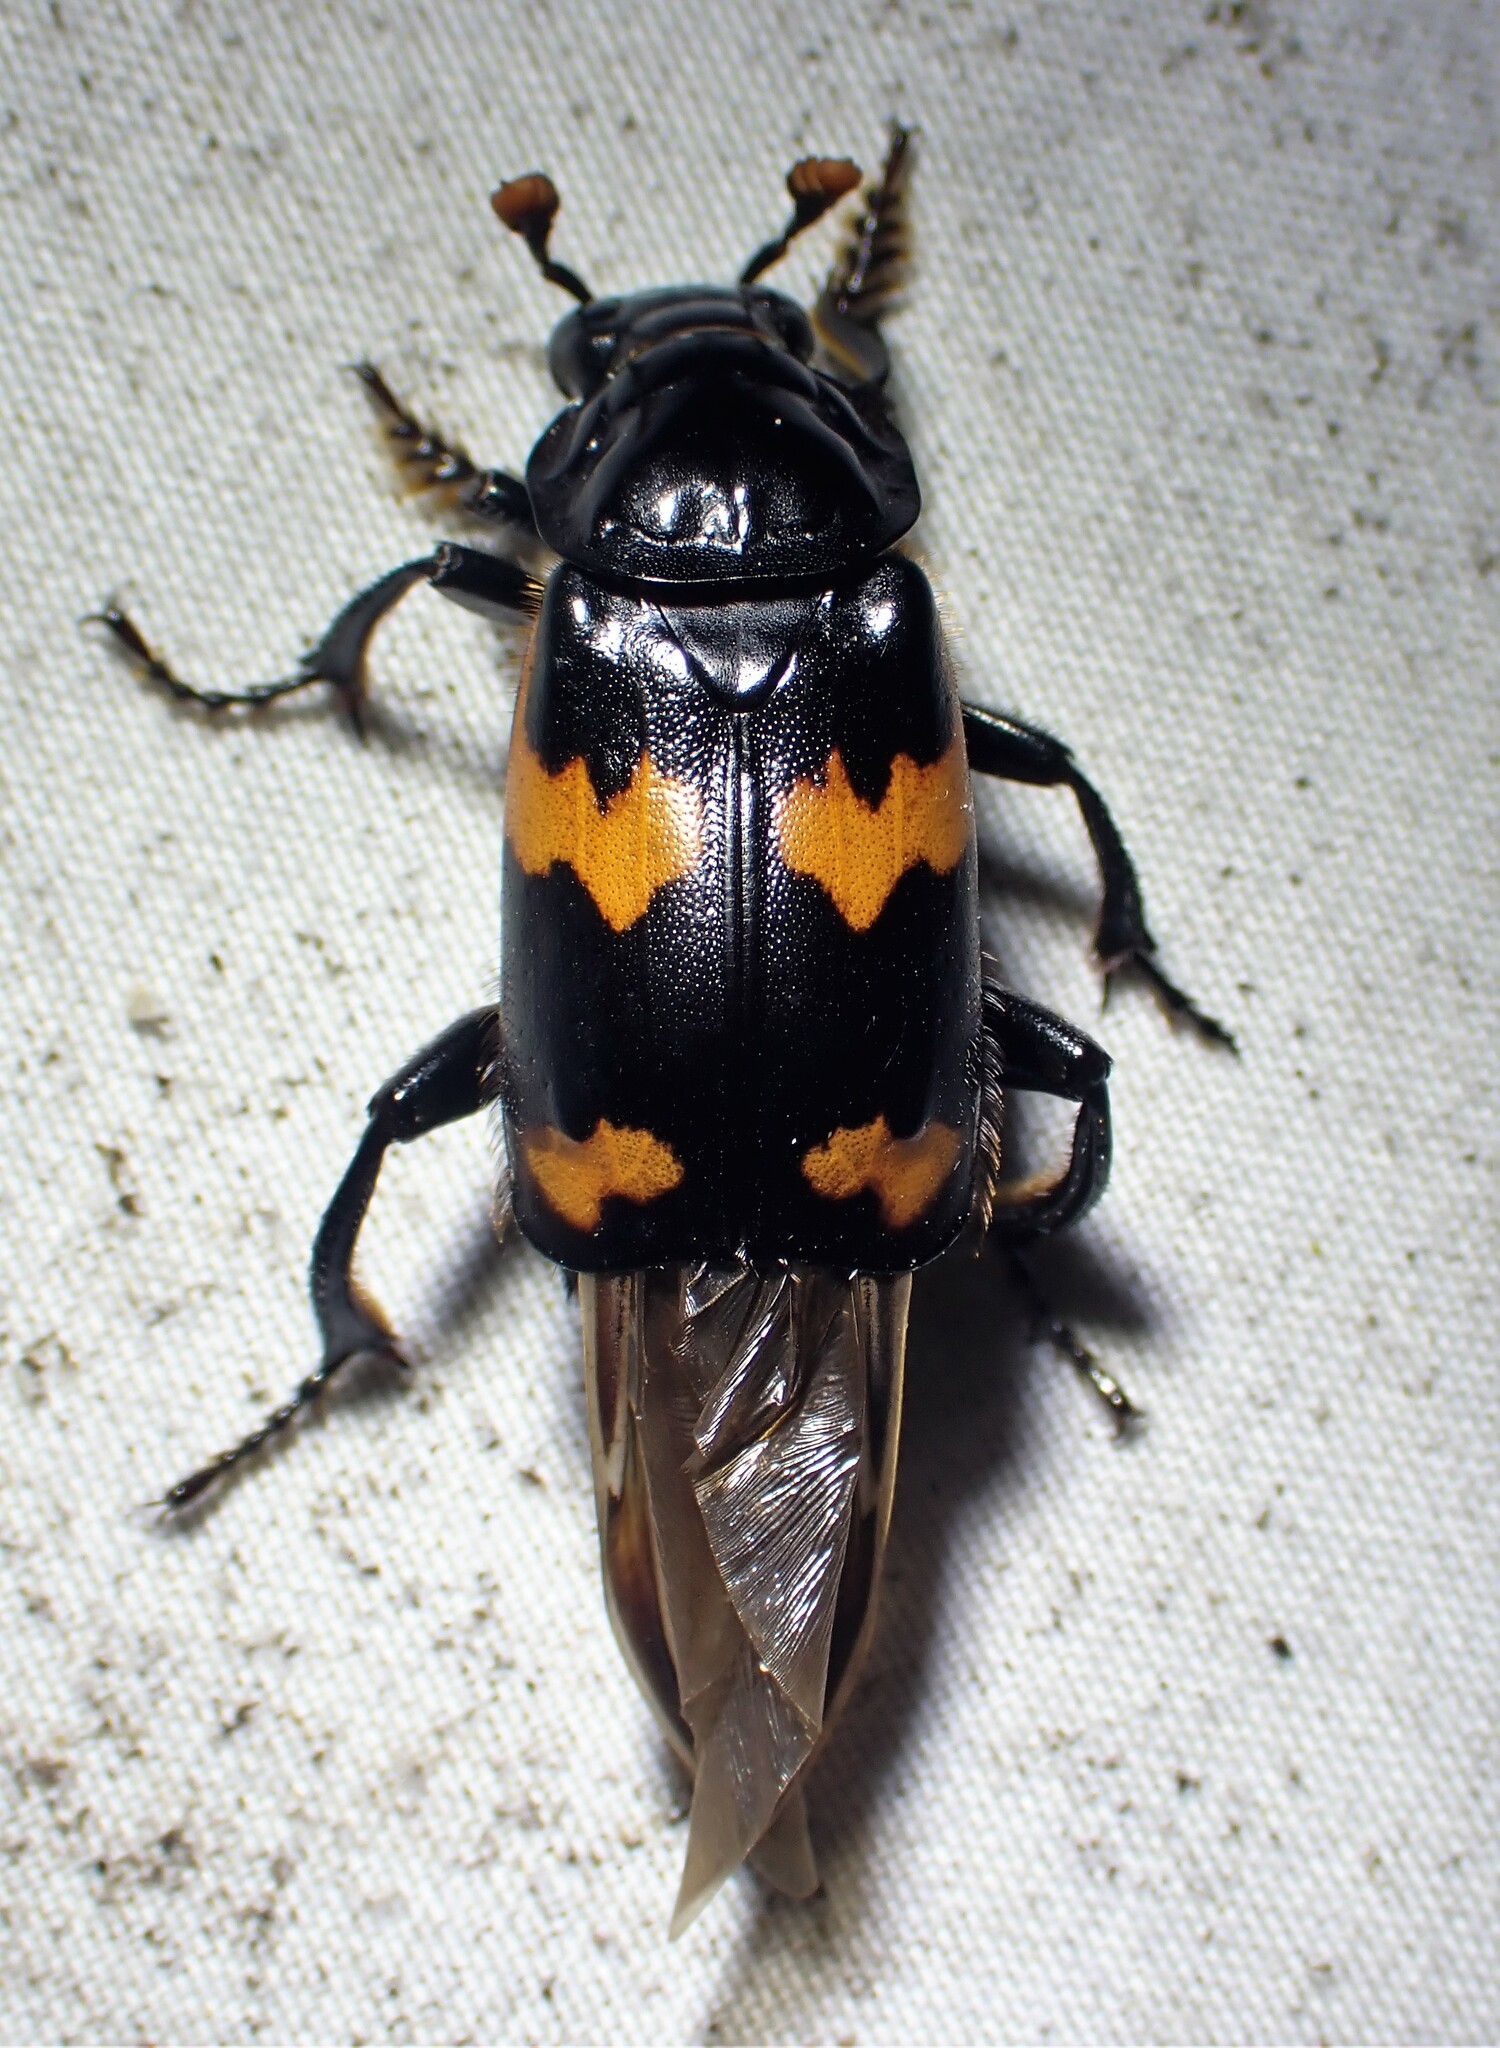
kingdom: Animalia
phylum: Arthropoda
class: Insecta
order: Coleoptera
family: Staphylinidae
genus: Nicrophorus
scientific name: Nicrophorus sayi
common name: Say's burying beetle
